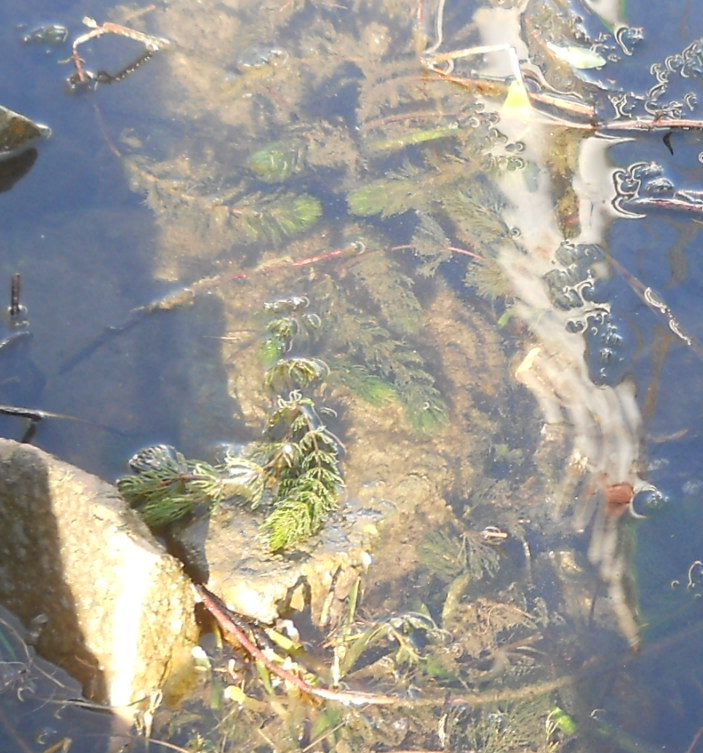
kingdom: Plantae
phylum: Tracheophyta
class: Magnoliopsida
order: Ceratophyllales
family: Ceratophyllaceae
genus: Ceratophyllum
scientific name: Ceratophyllum demersum
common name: Rigid hornwort
